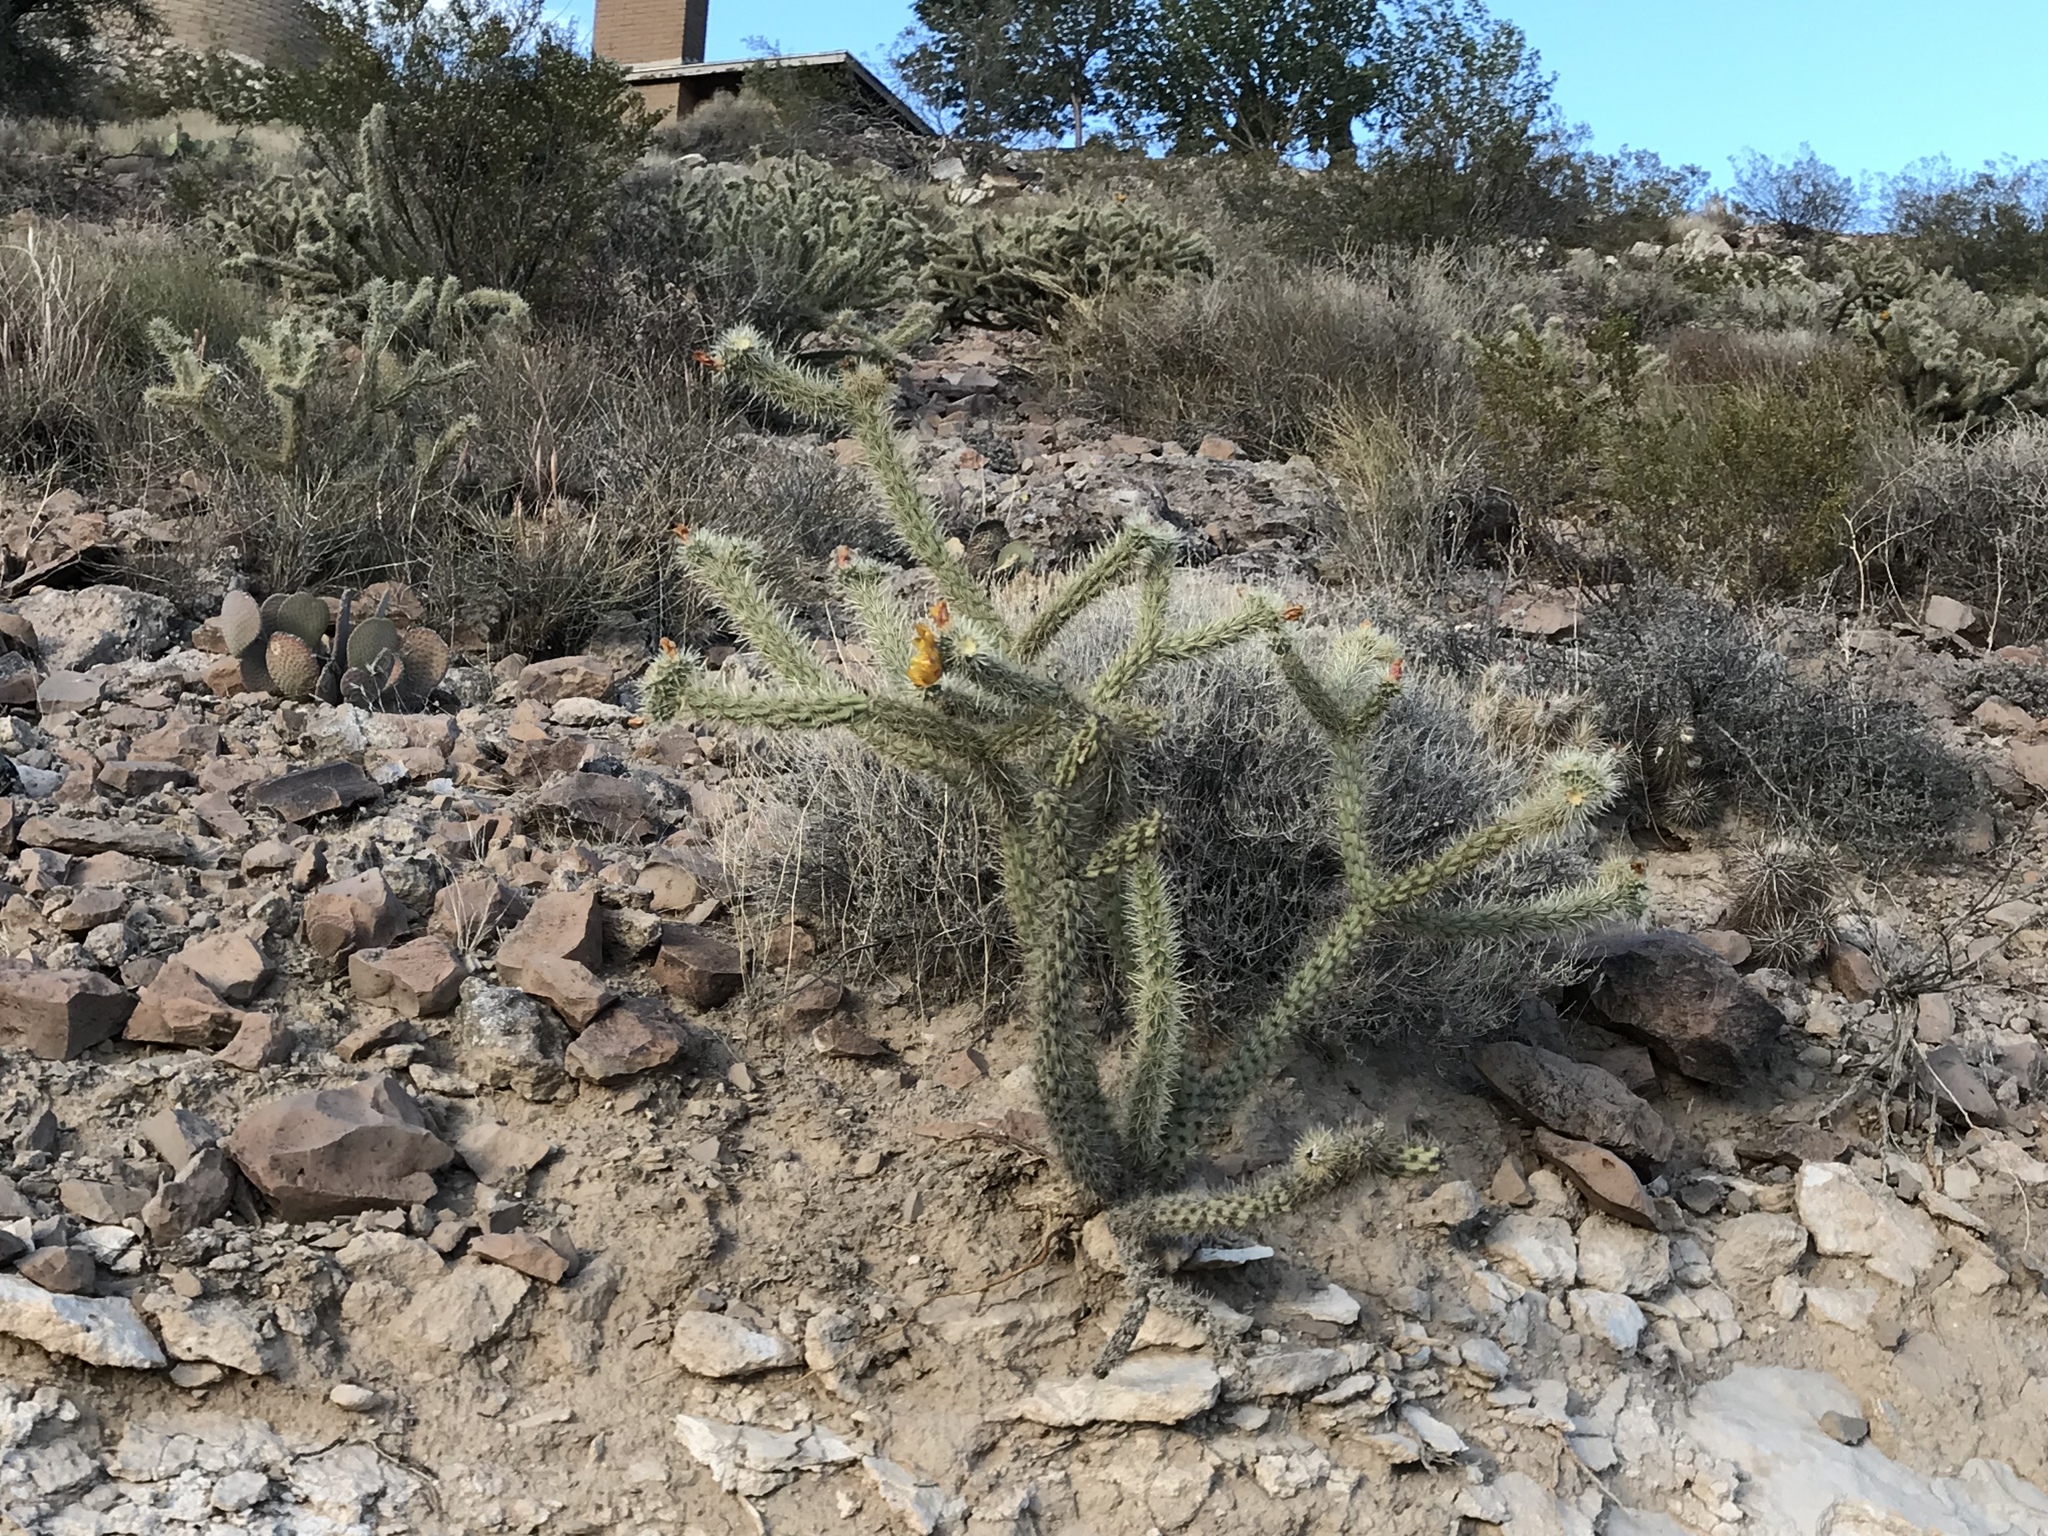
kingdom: Plantae
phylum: Tracheophyta
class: Magnoliopsida
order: Caryophyllales
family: Cactaceae
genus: Cylindropuntia
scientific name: Cylindropuntia acanthocarpa
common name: Buckhorn cholla
